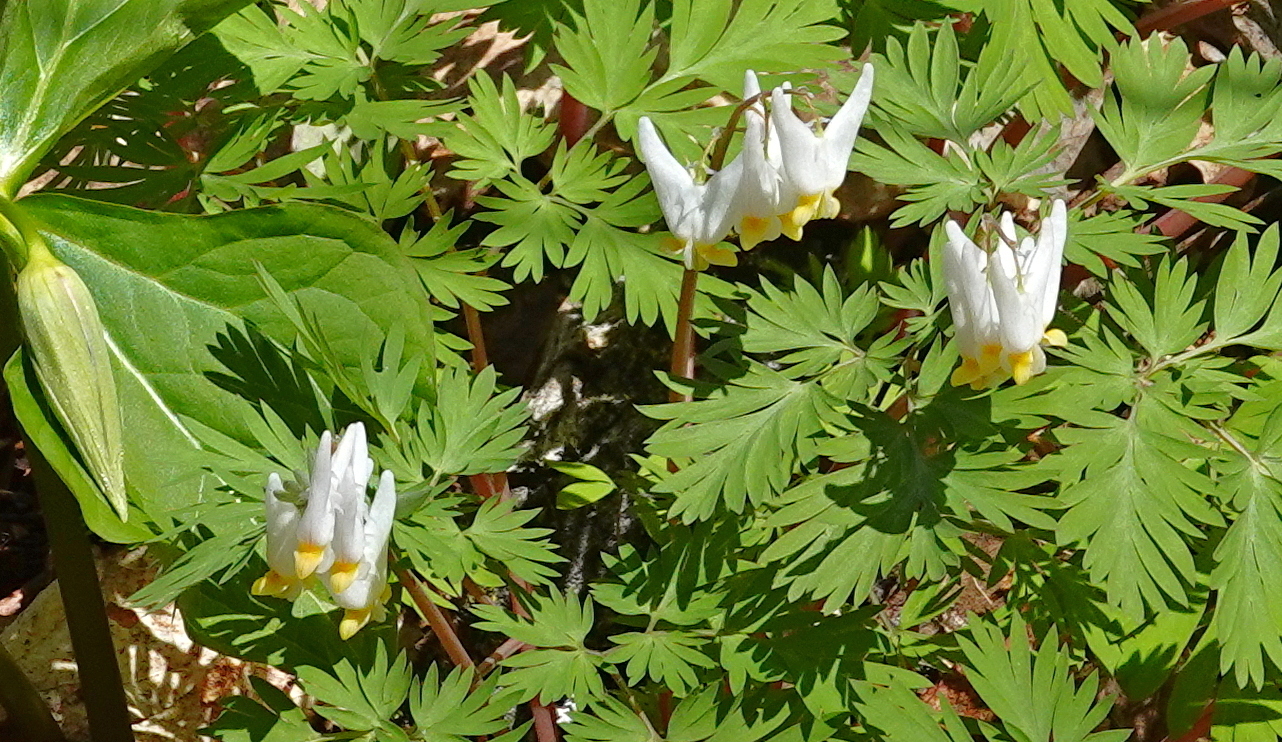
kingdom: Plantae
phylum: Tracheophyta
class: Magnoliopsida
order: Ranunculales
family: Papaveraceae
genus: Dicentra
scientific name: Dicentra cucullaria
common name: Dutchman's breeches
